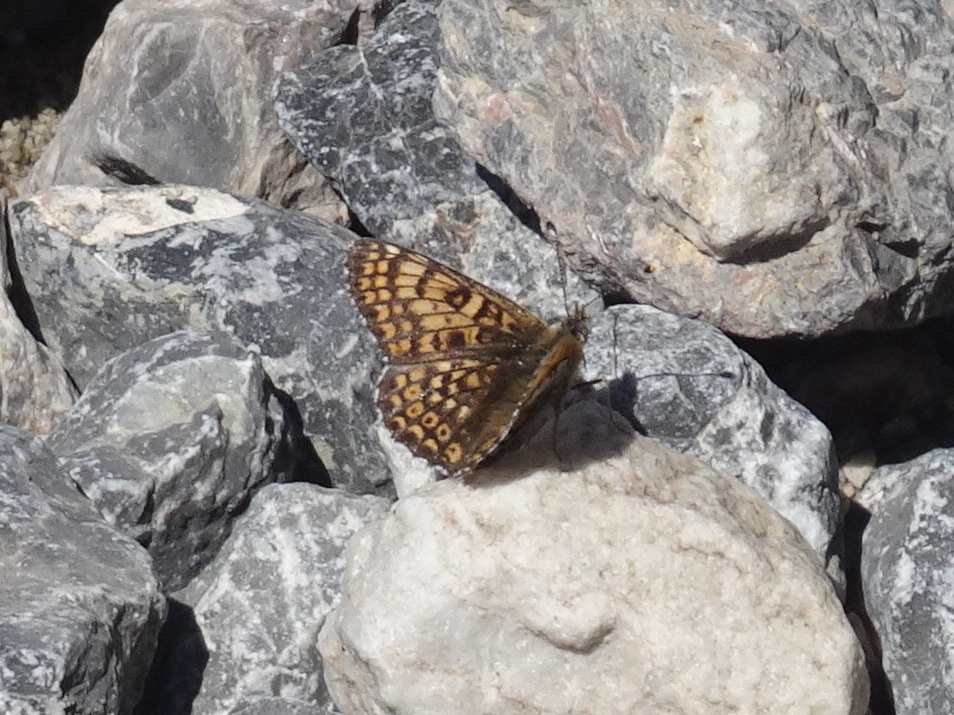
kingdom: Animalia
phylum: Arthropoda
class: Insecta
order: Lepidoptera
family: Nymphalidae
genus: Melitaea
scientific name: Melitaea cinxia
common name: Glanville fritillary
